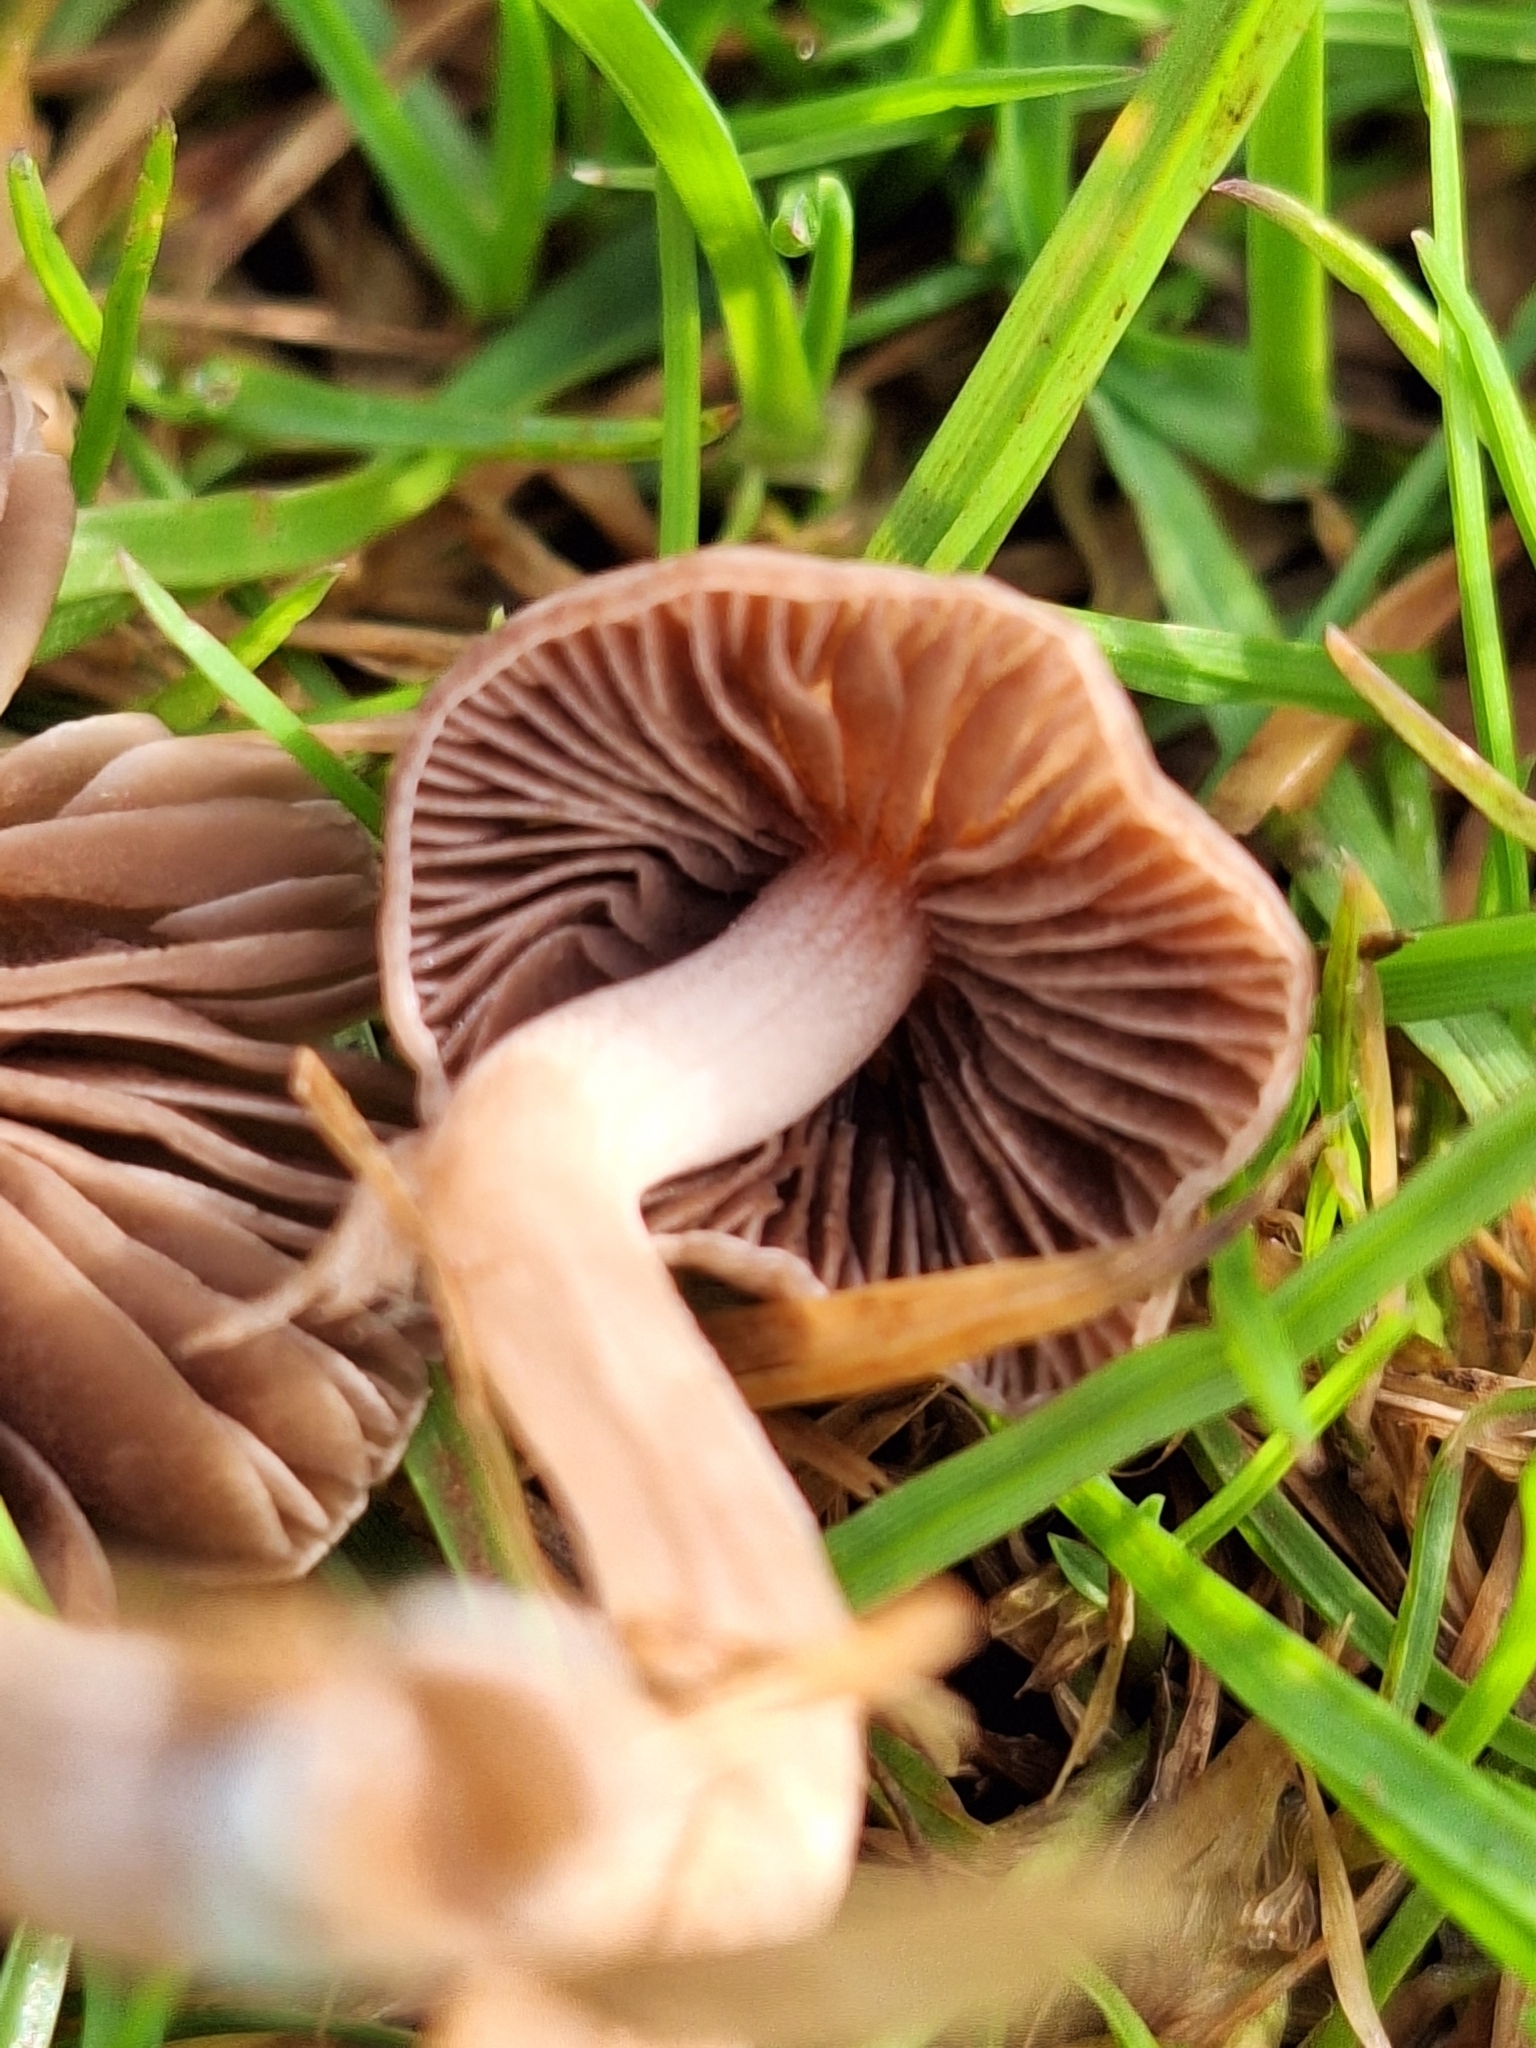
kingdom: Fungi
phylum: Basidiomycota
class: Agaricomycetes
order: Agaricales
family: Bolbitiaceae
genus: Panaeolina
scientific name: Panaeolina foenisecii
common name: Brown hay cap
